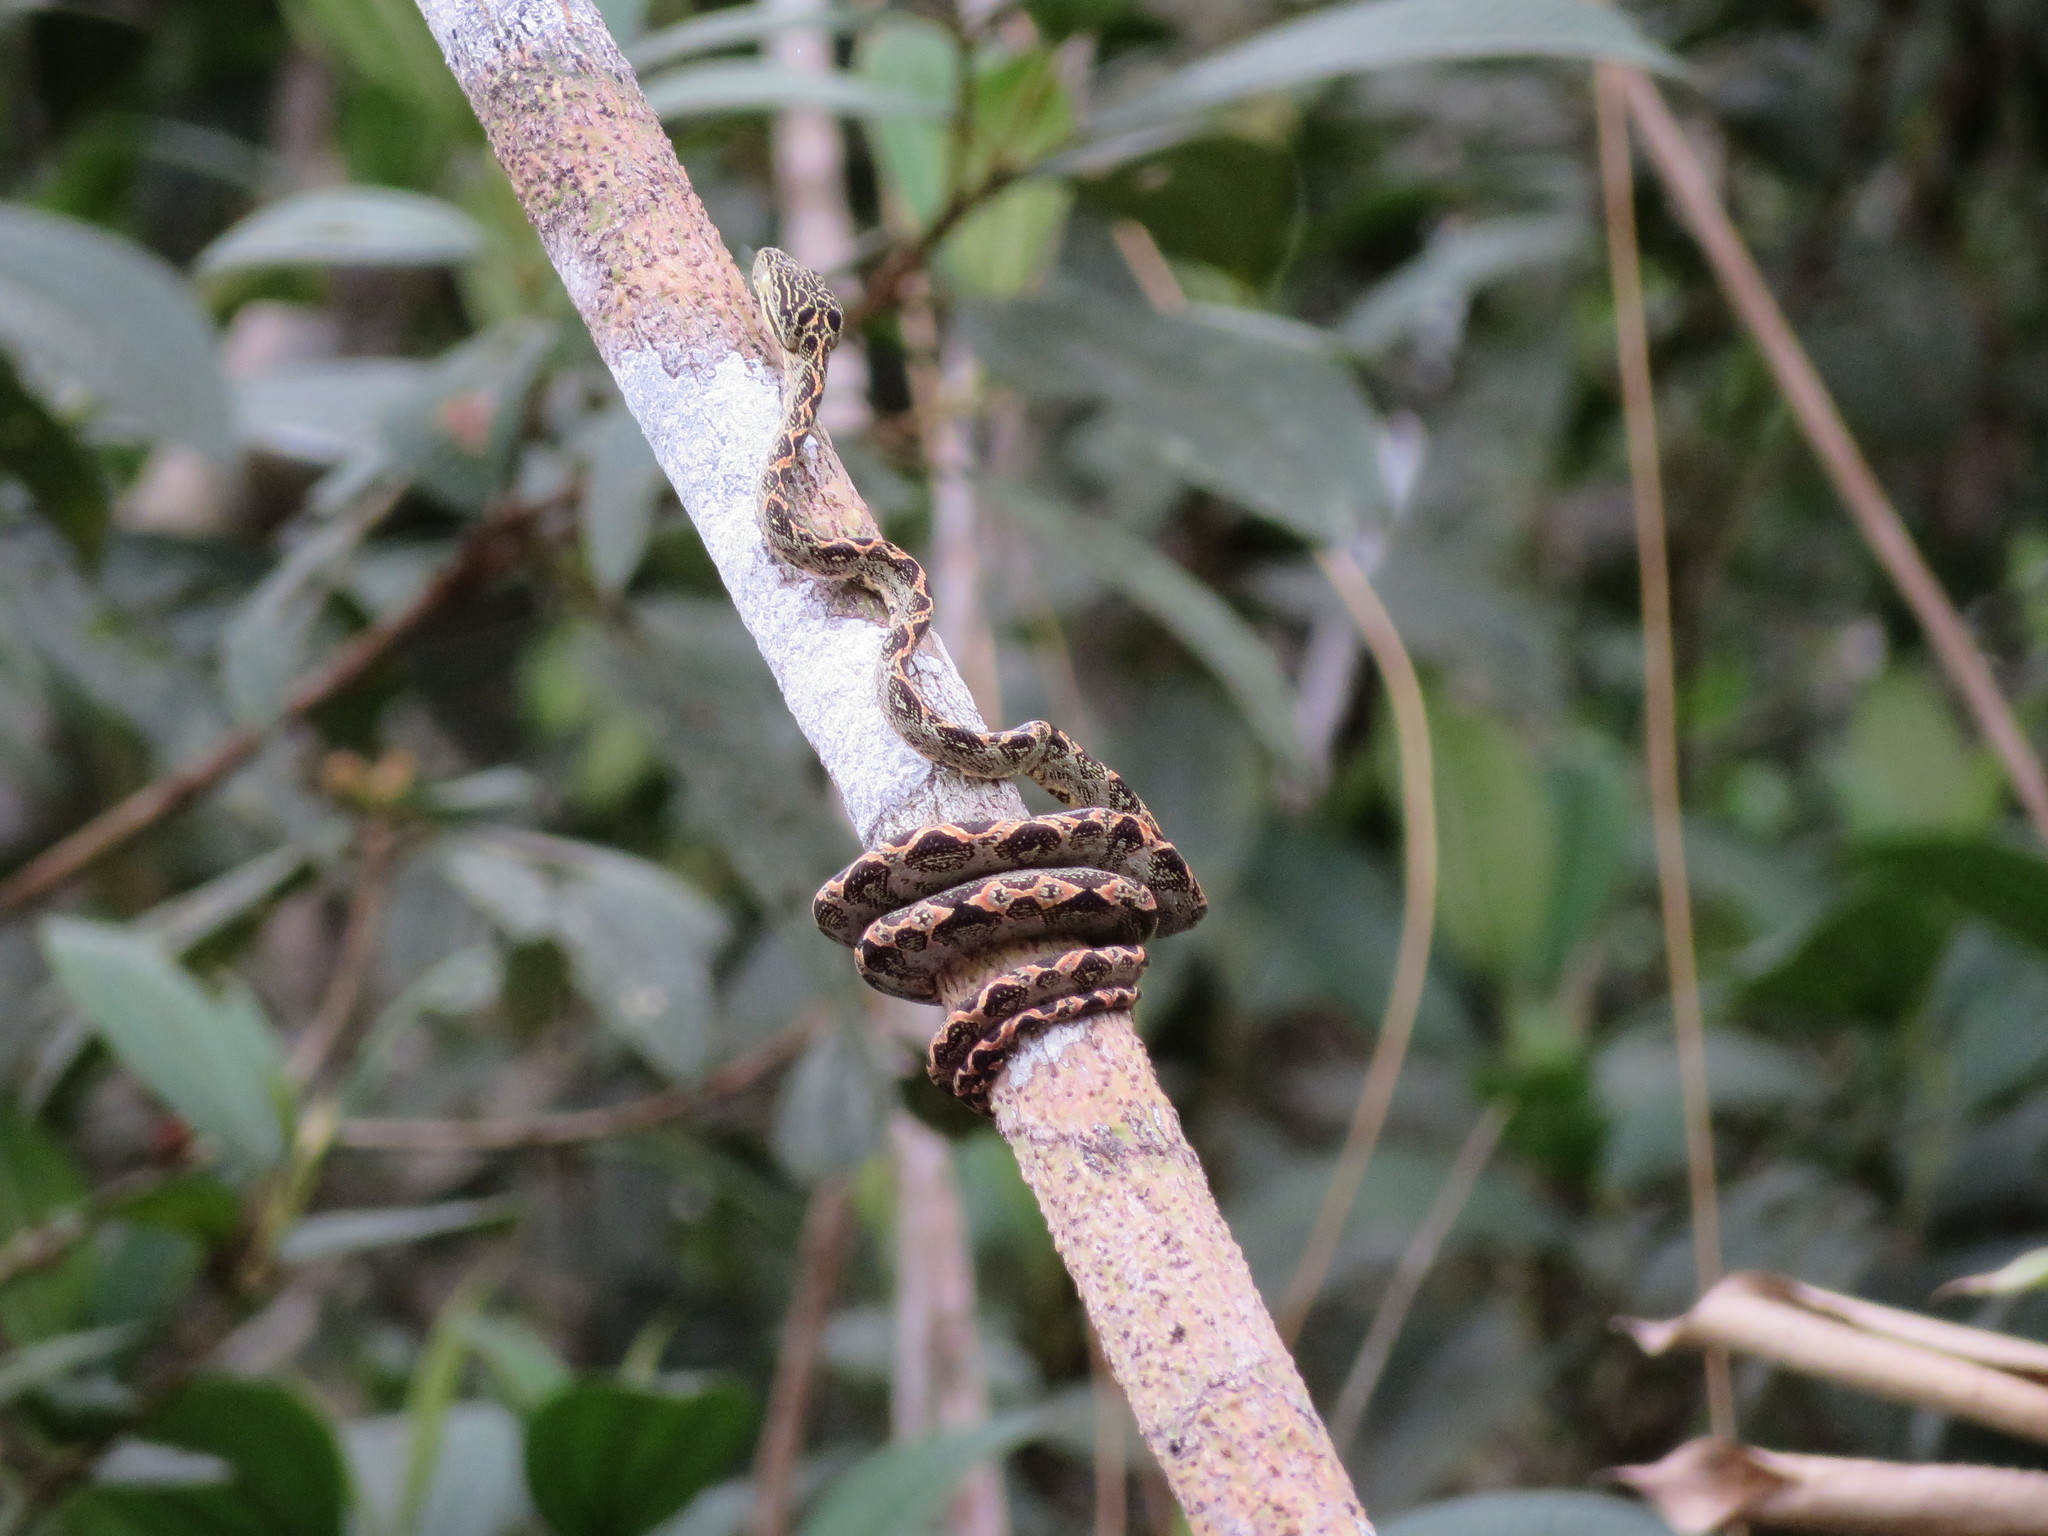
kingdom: Animalia
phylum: Chordata
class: Squamata
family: Boidae
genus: Corallus
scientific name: Corallus hortulana
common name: Garden tree boa
